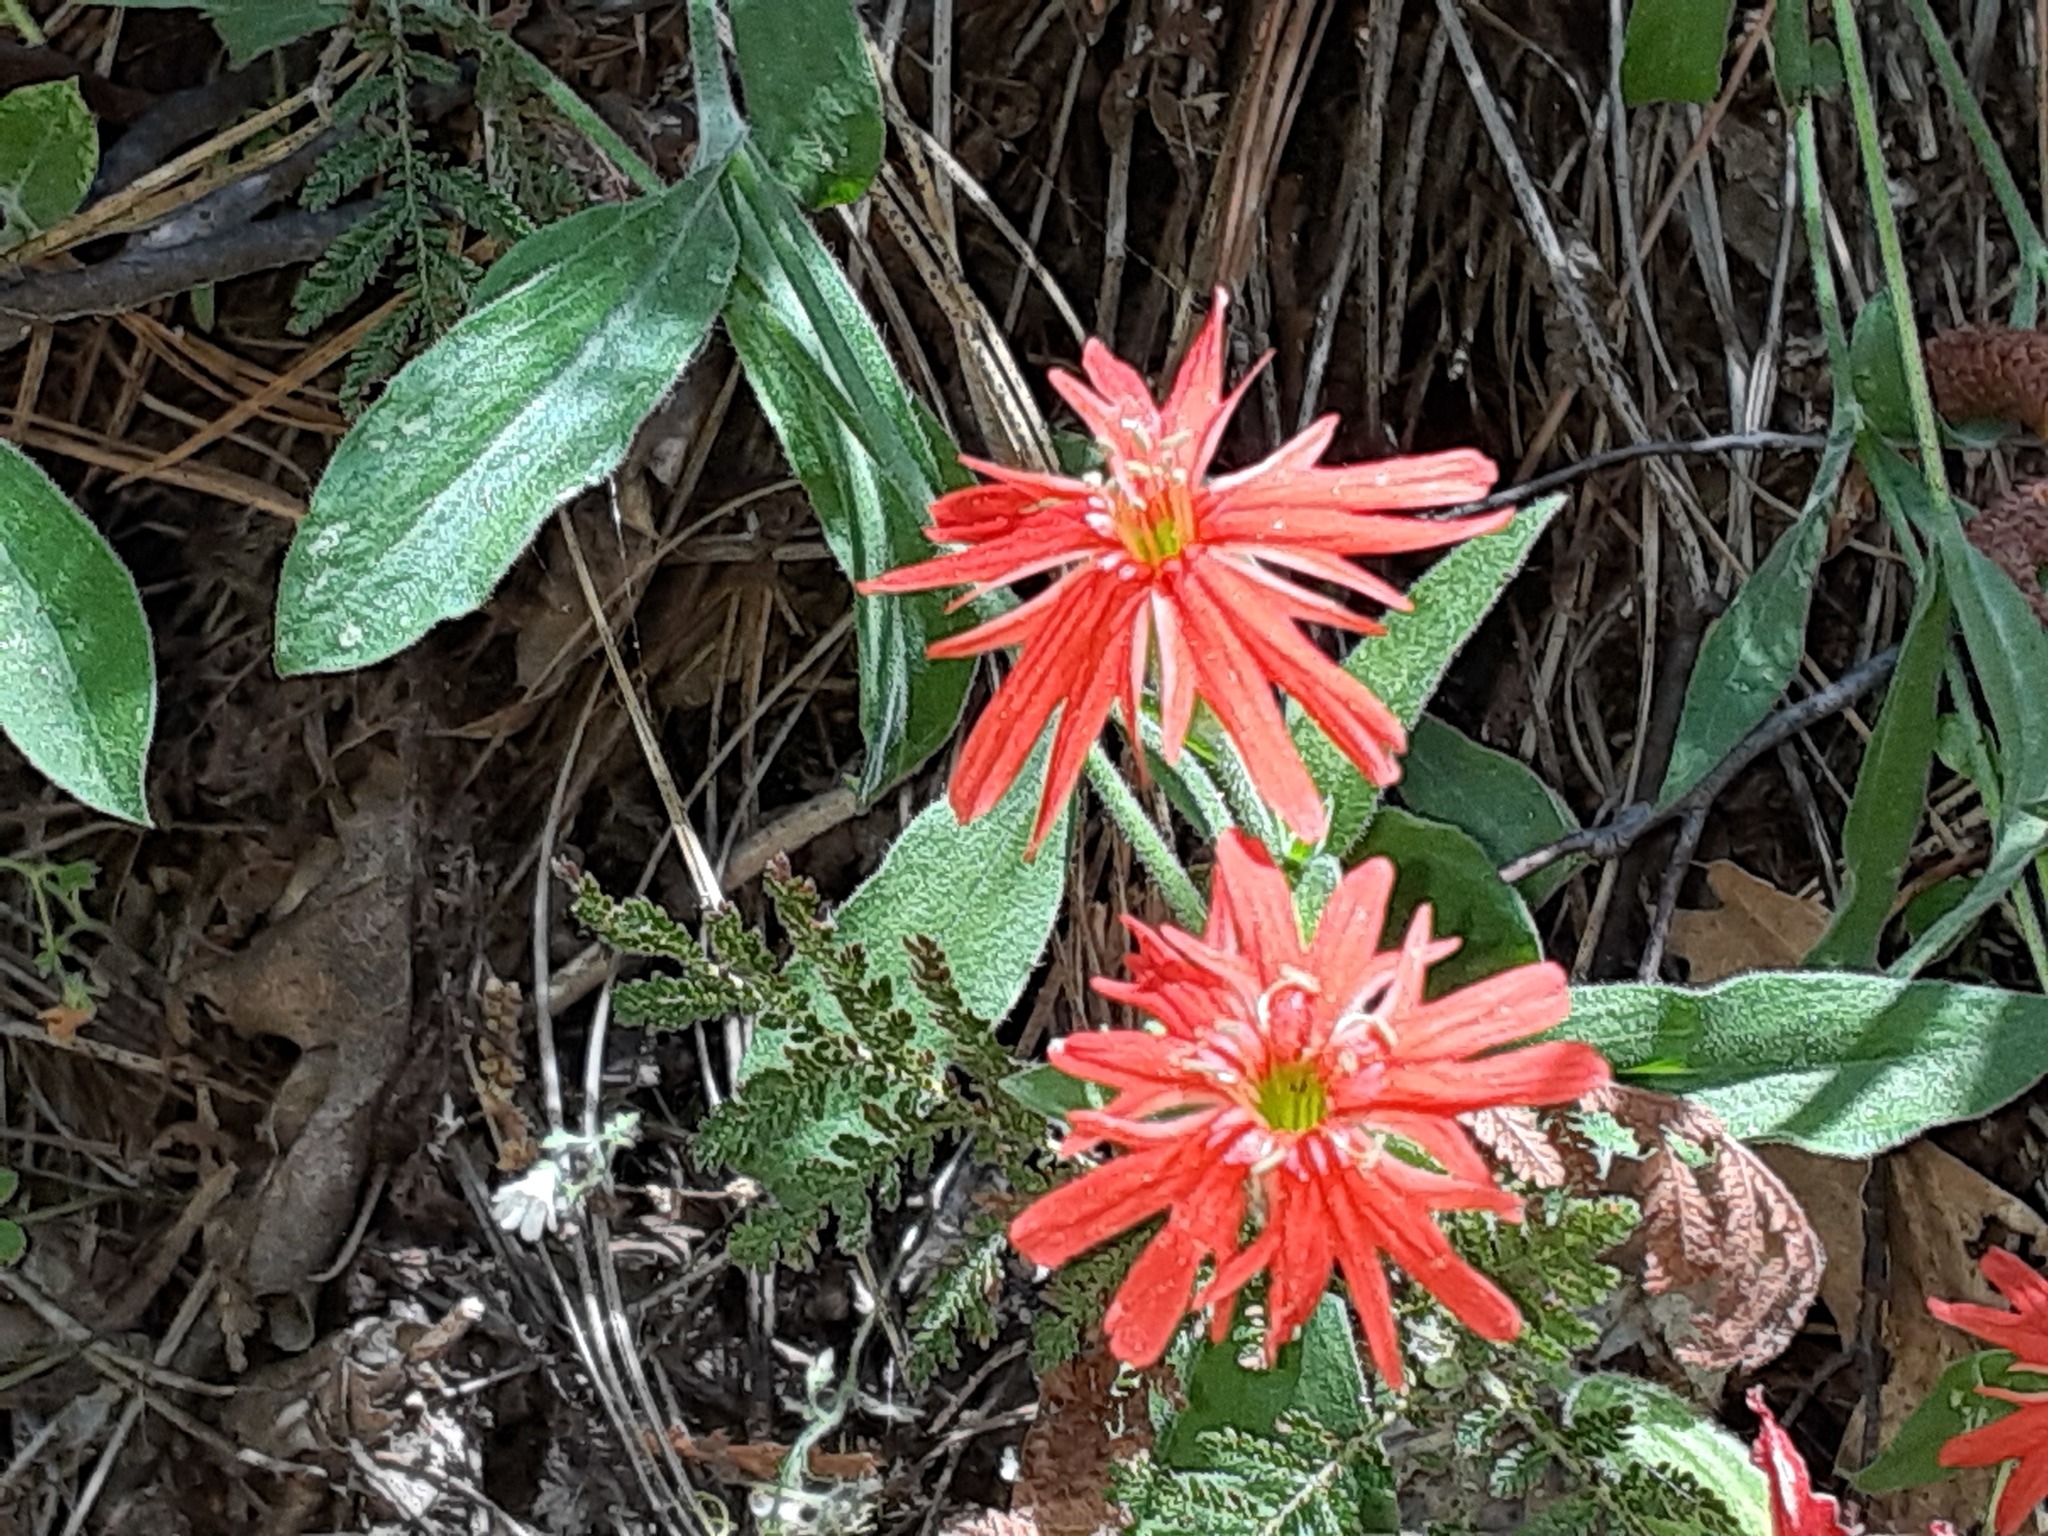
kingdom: Plantae
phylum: Tracheophyta
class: Magnoliopsida
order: Caryophyllales
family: Caryophyllaceae
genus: Silene
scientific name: Silene laciniata
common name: Indian-pink
